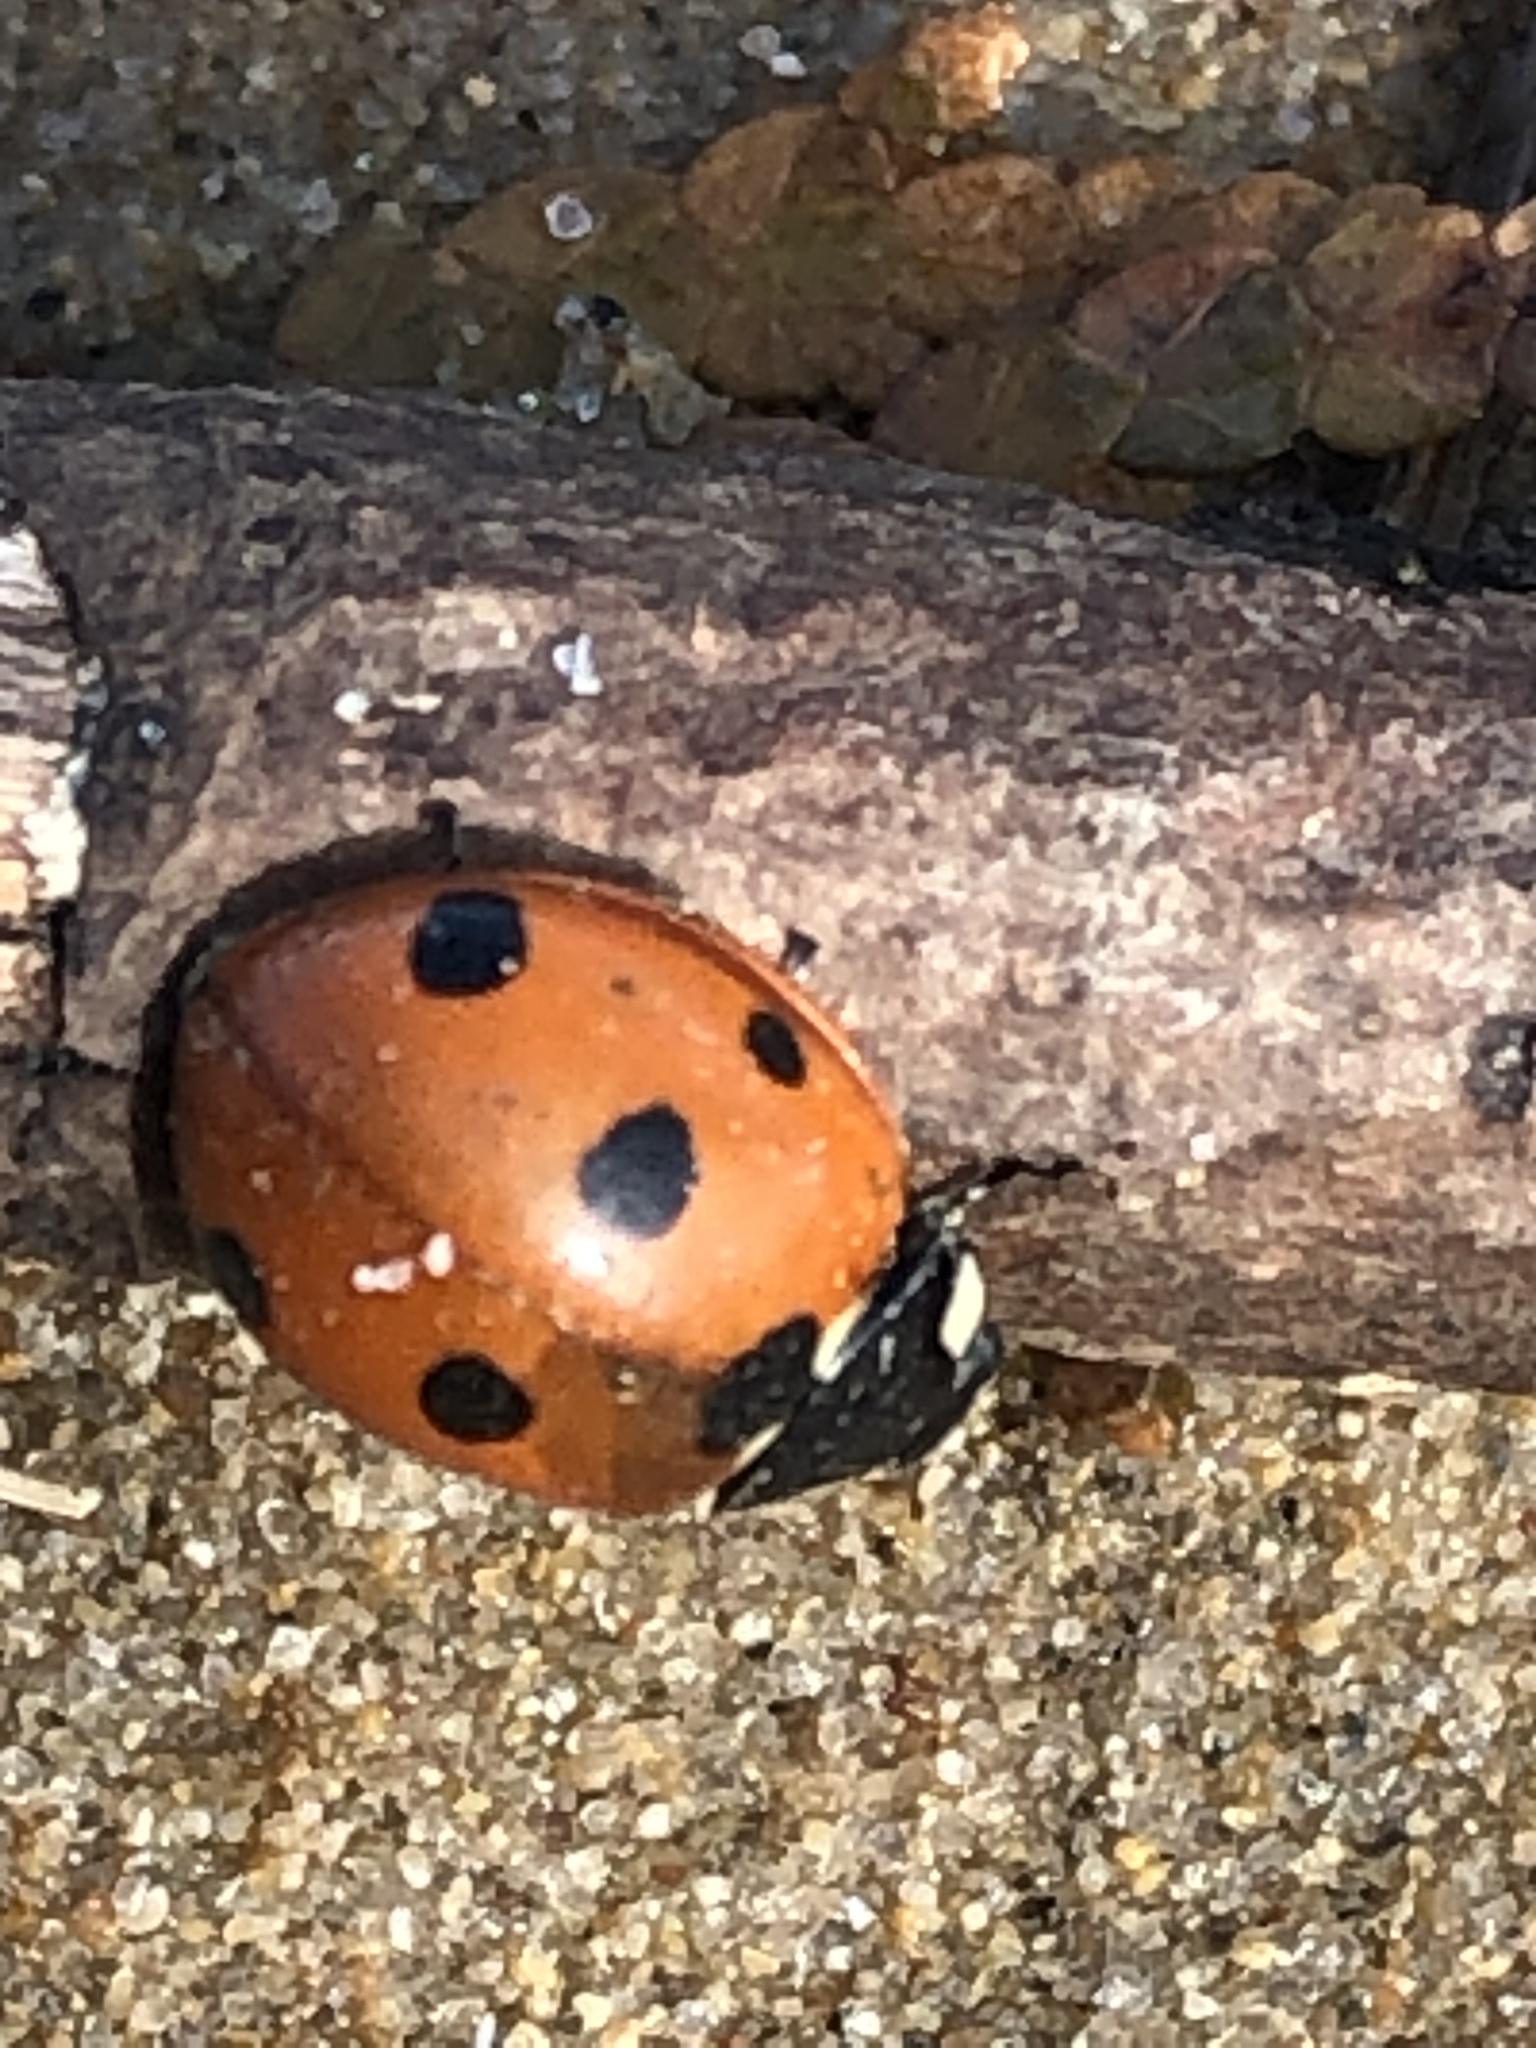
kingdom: Animalia
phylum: Arthropoda
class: Insecta
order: Coleoptera
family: Coccinellidae
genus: Coccinella
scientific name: Coccinella septempunctata
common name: Sevenspotted lady beetle
